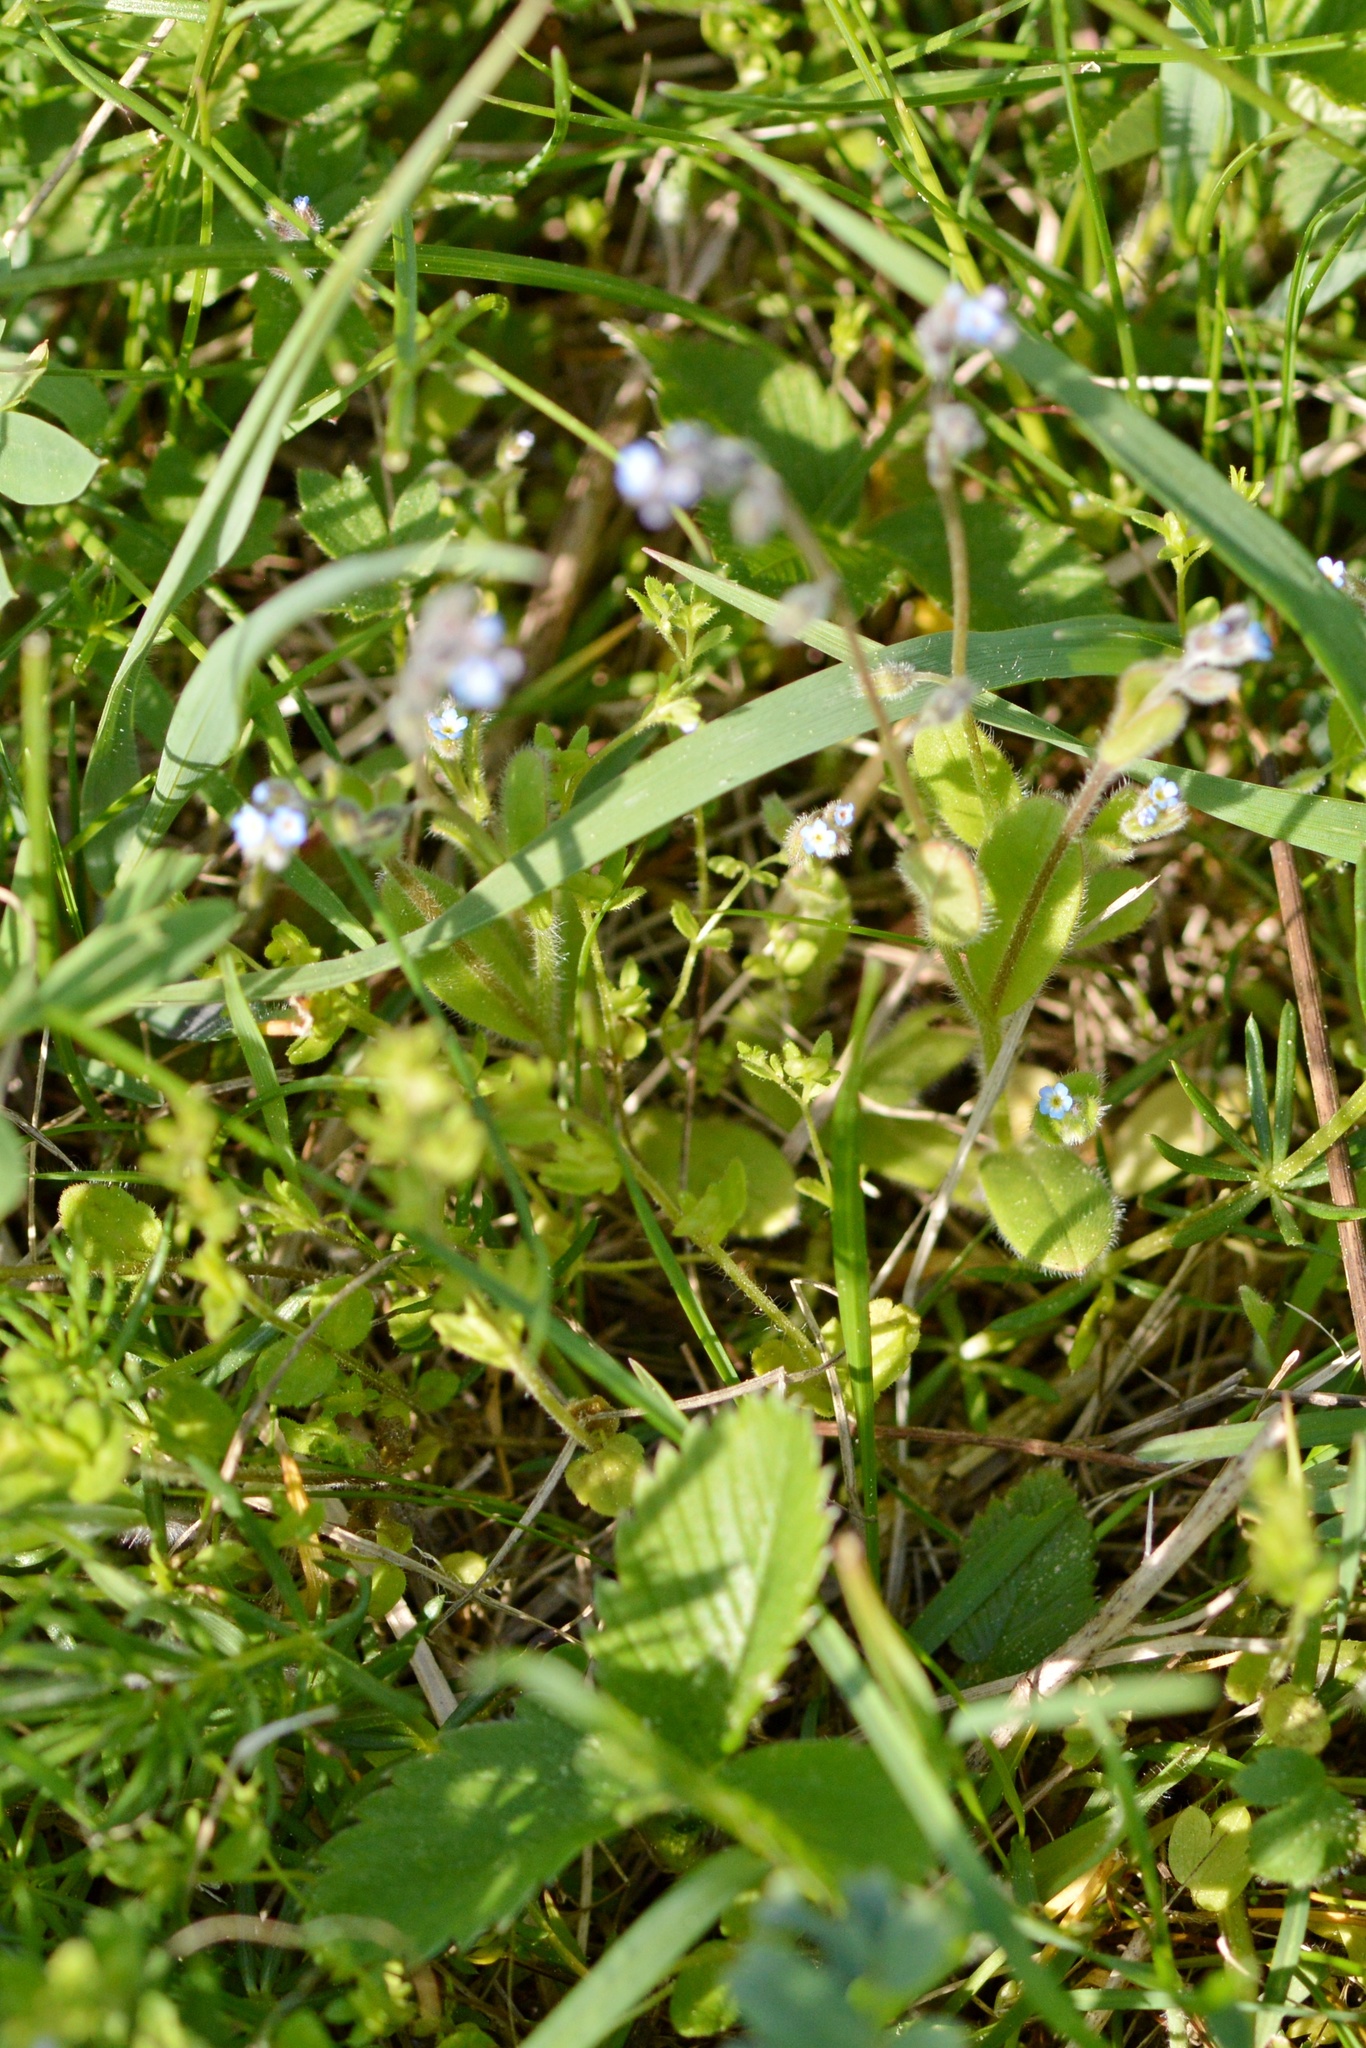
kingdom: Plantae
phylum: Tracheophyta
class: Magnoliopsida
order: Boraginales
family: Boraginaceae
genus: Myosotis
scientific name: Myosotis stricta
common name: Strict forget-me-not
